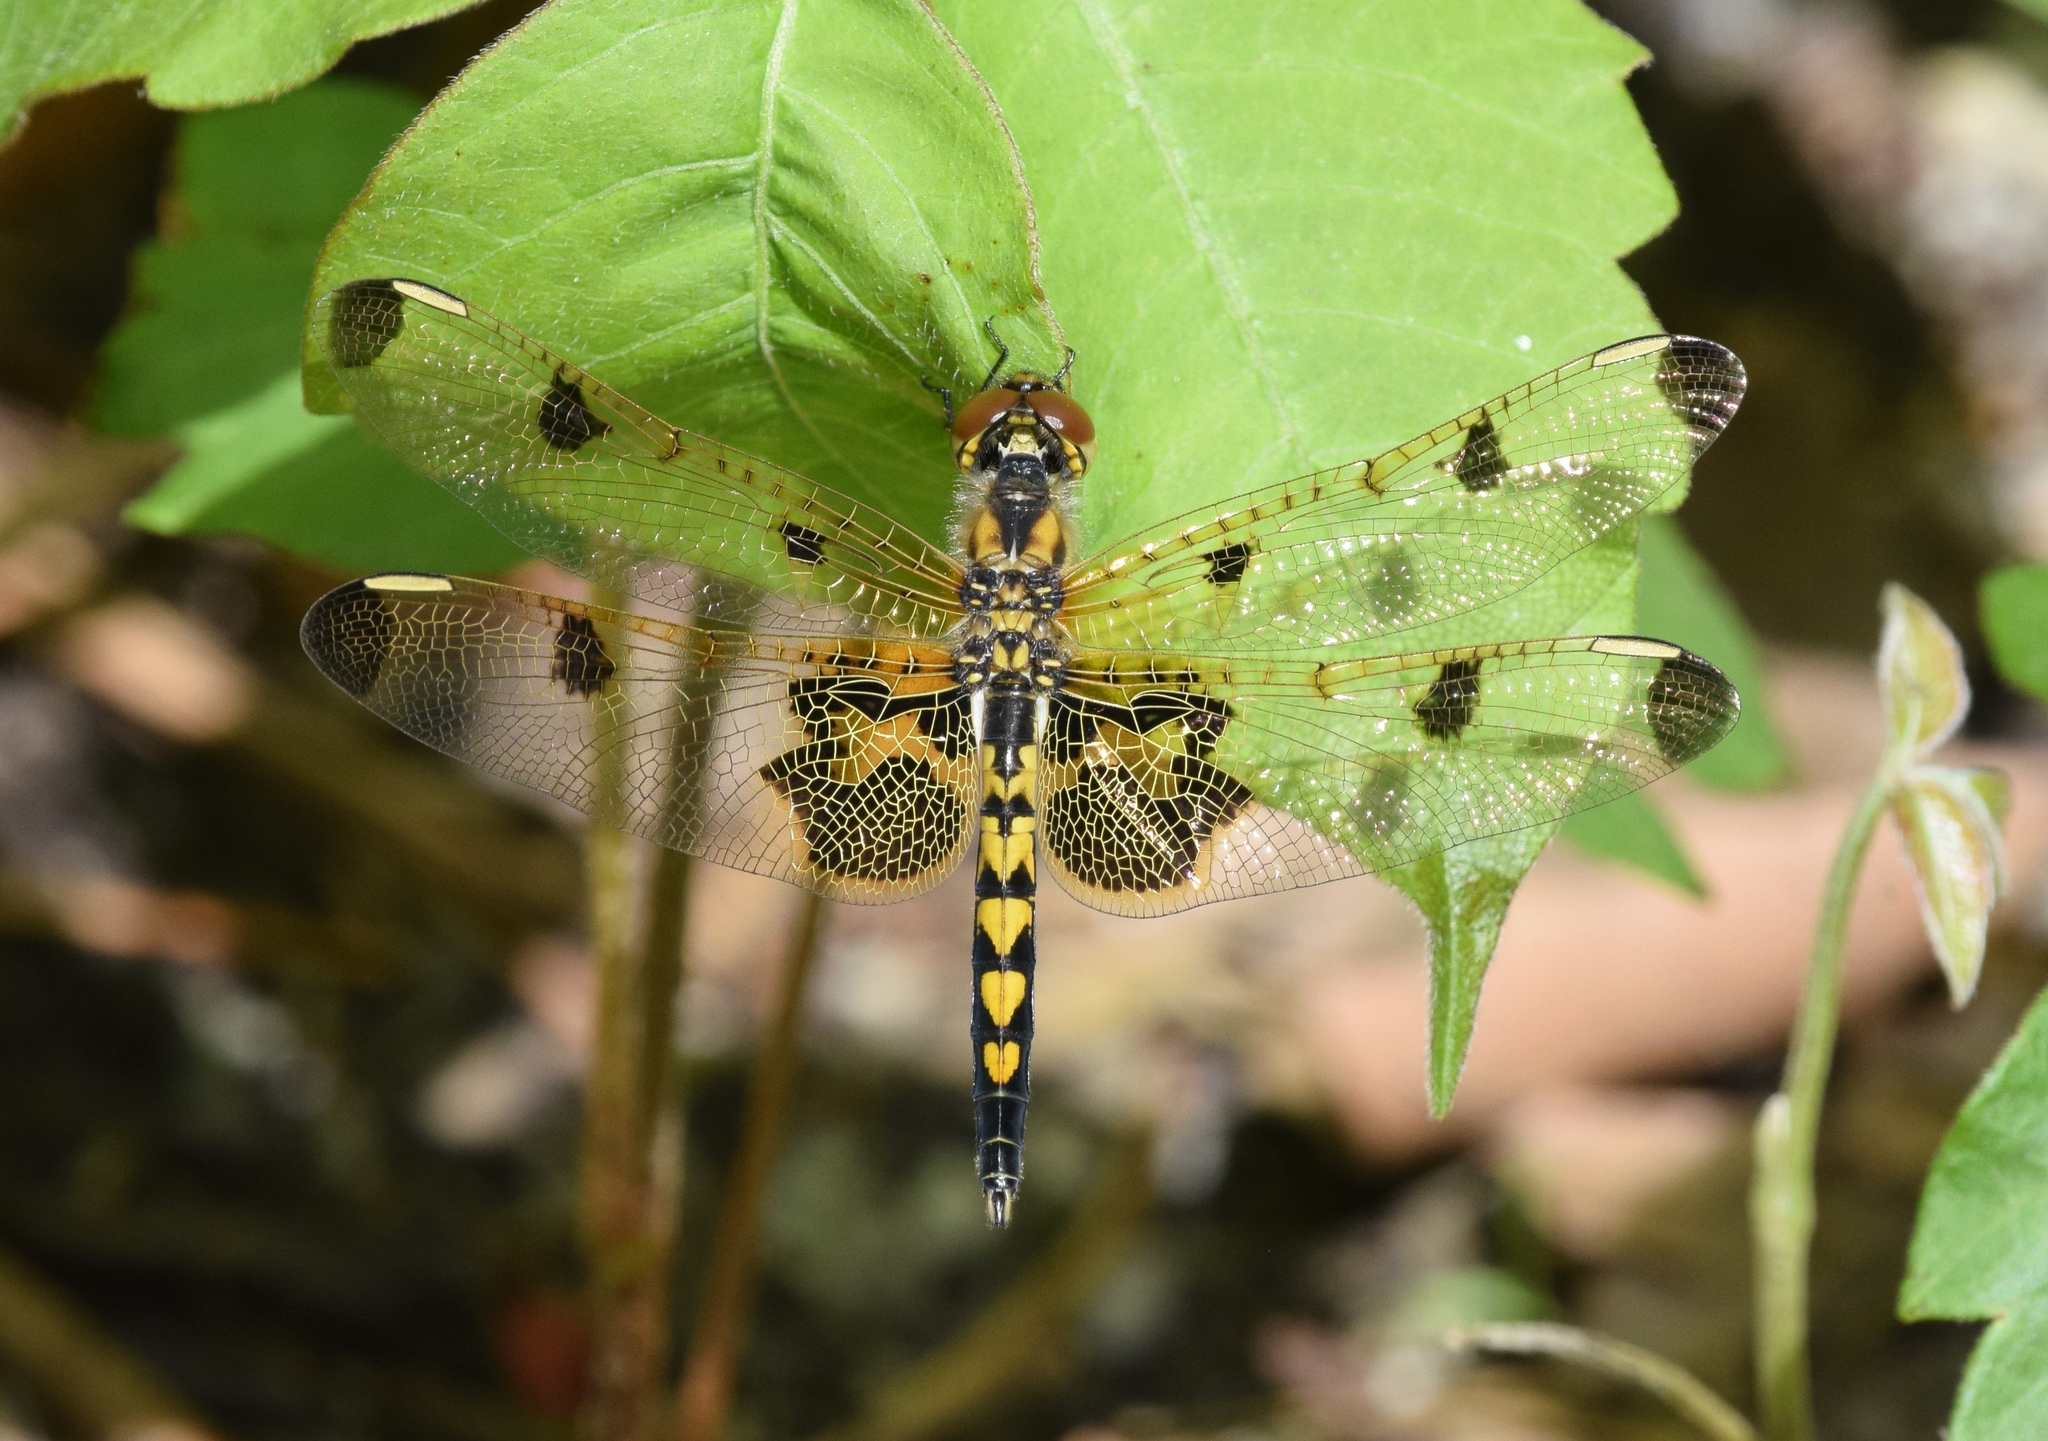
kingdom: Animalia
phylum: Arthropoda
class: Insecta
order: Odonata
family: Libellulidae
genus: Celithemis
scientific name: Celithemis elisa
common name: Calico pennant
